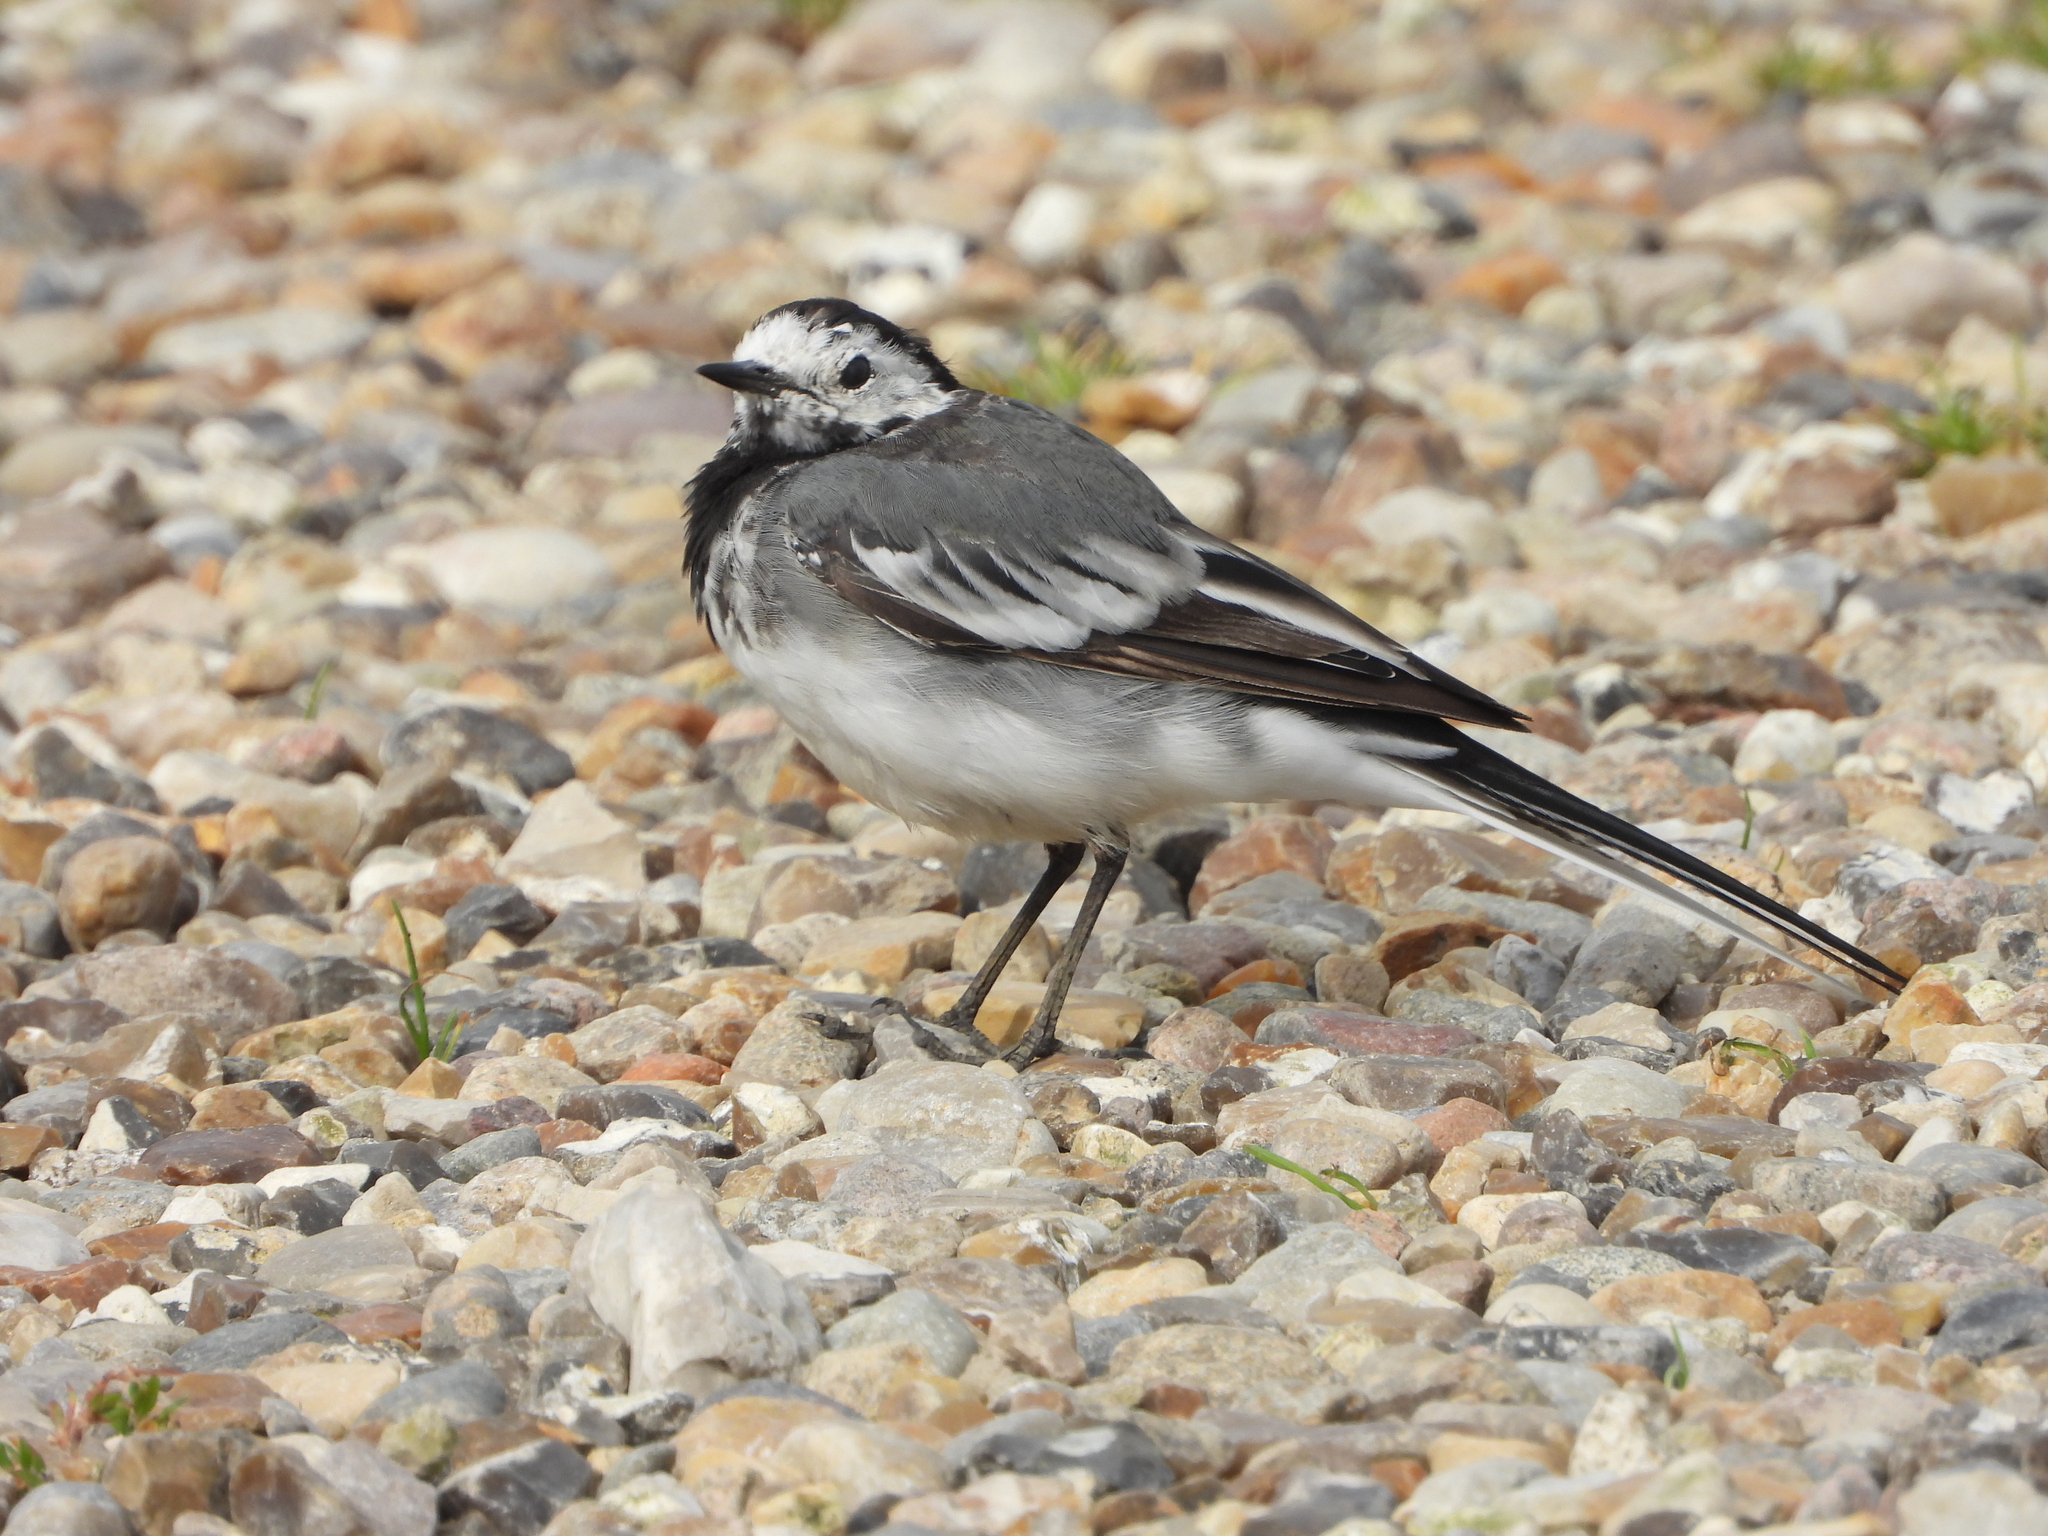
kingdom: Animalia
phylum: Chordata
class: Aves
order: Passeriformes
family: Motacillidae
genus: Motacilla
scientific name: Motacilla alba
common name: White wagtail
